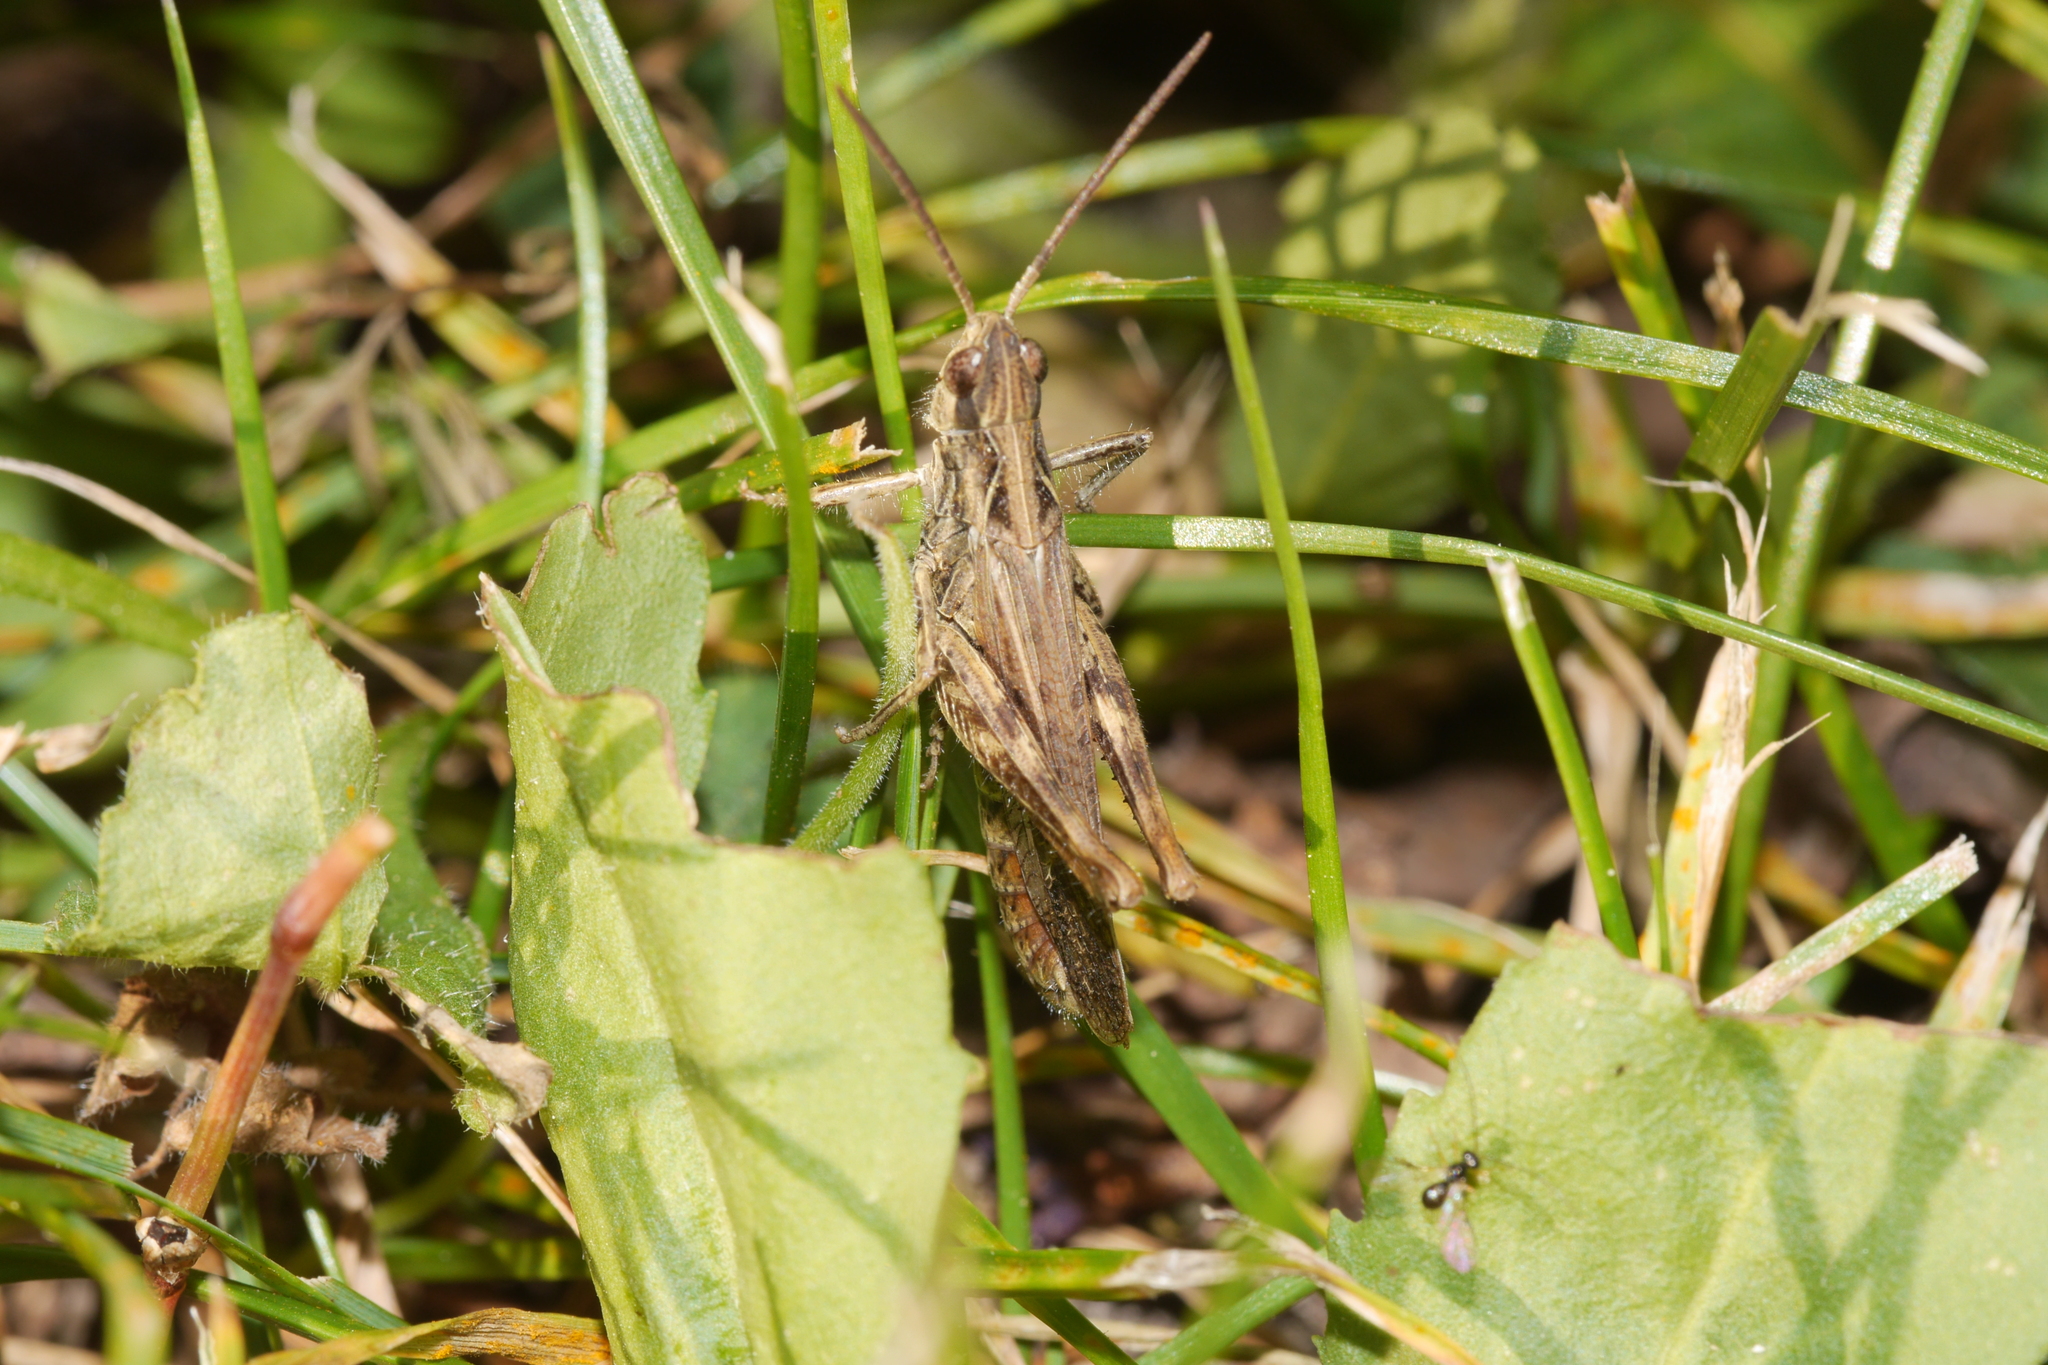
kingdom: Animalia
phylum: Arthropoda
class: Insecta
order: Orthoptera
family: Acrididae
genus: Chorthippus
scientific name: Chorthippus biguttulus
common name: Bow-winged grasshopper
